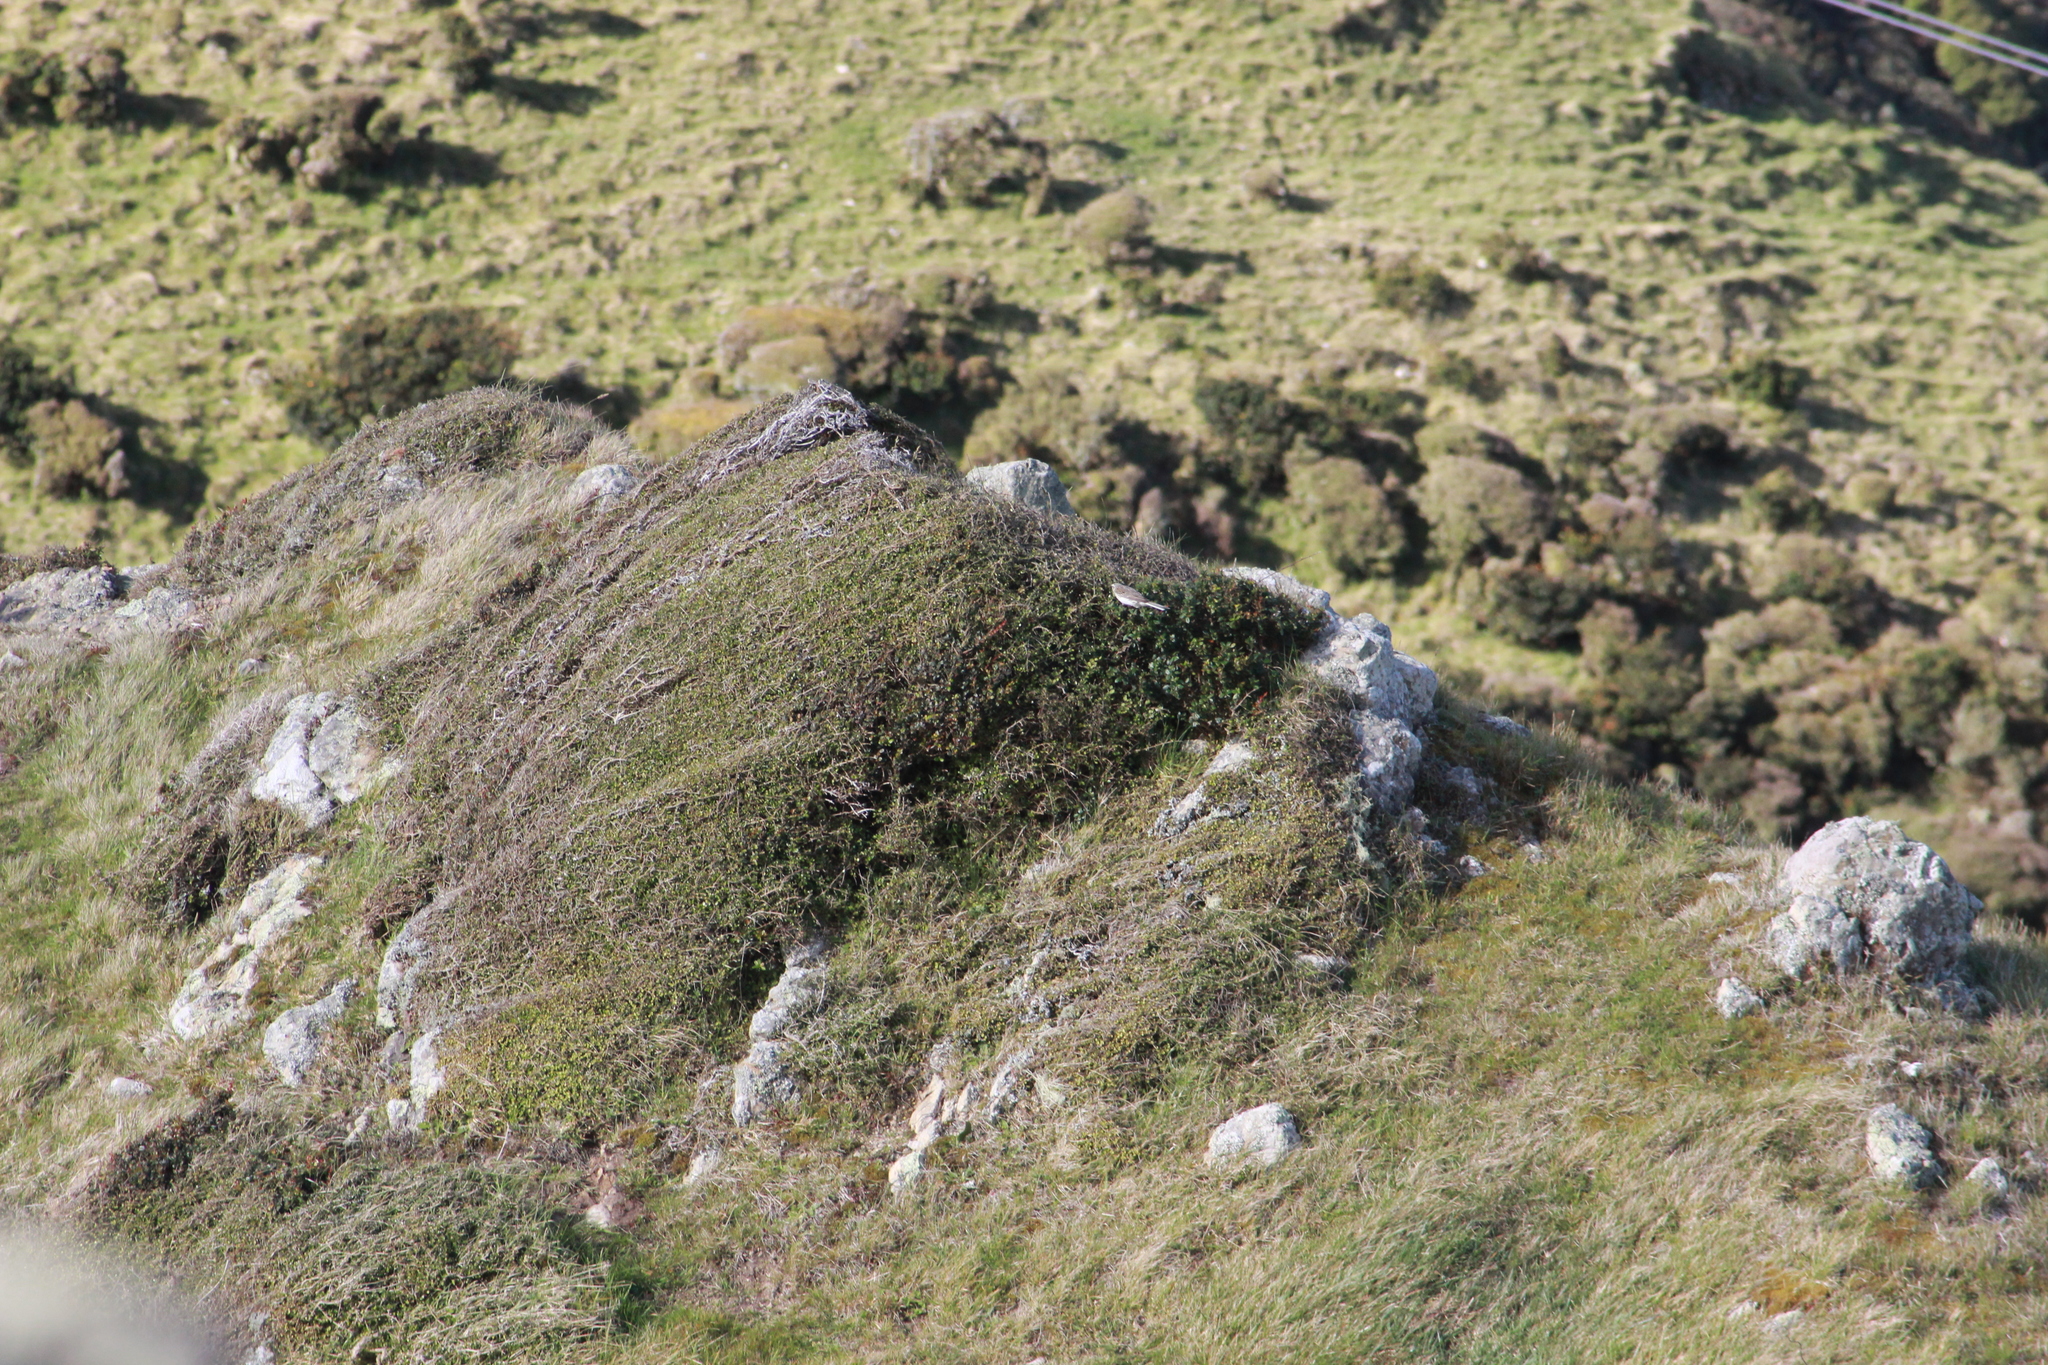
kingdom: Animalia
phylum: Chordata
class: Aves
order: Passeriformes
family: Motacillidae
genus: Anthus
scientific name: Anthus novaeseelandiae
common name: New zealand pipit
